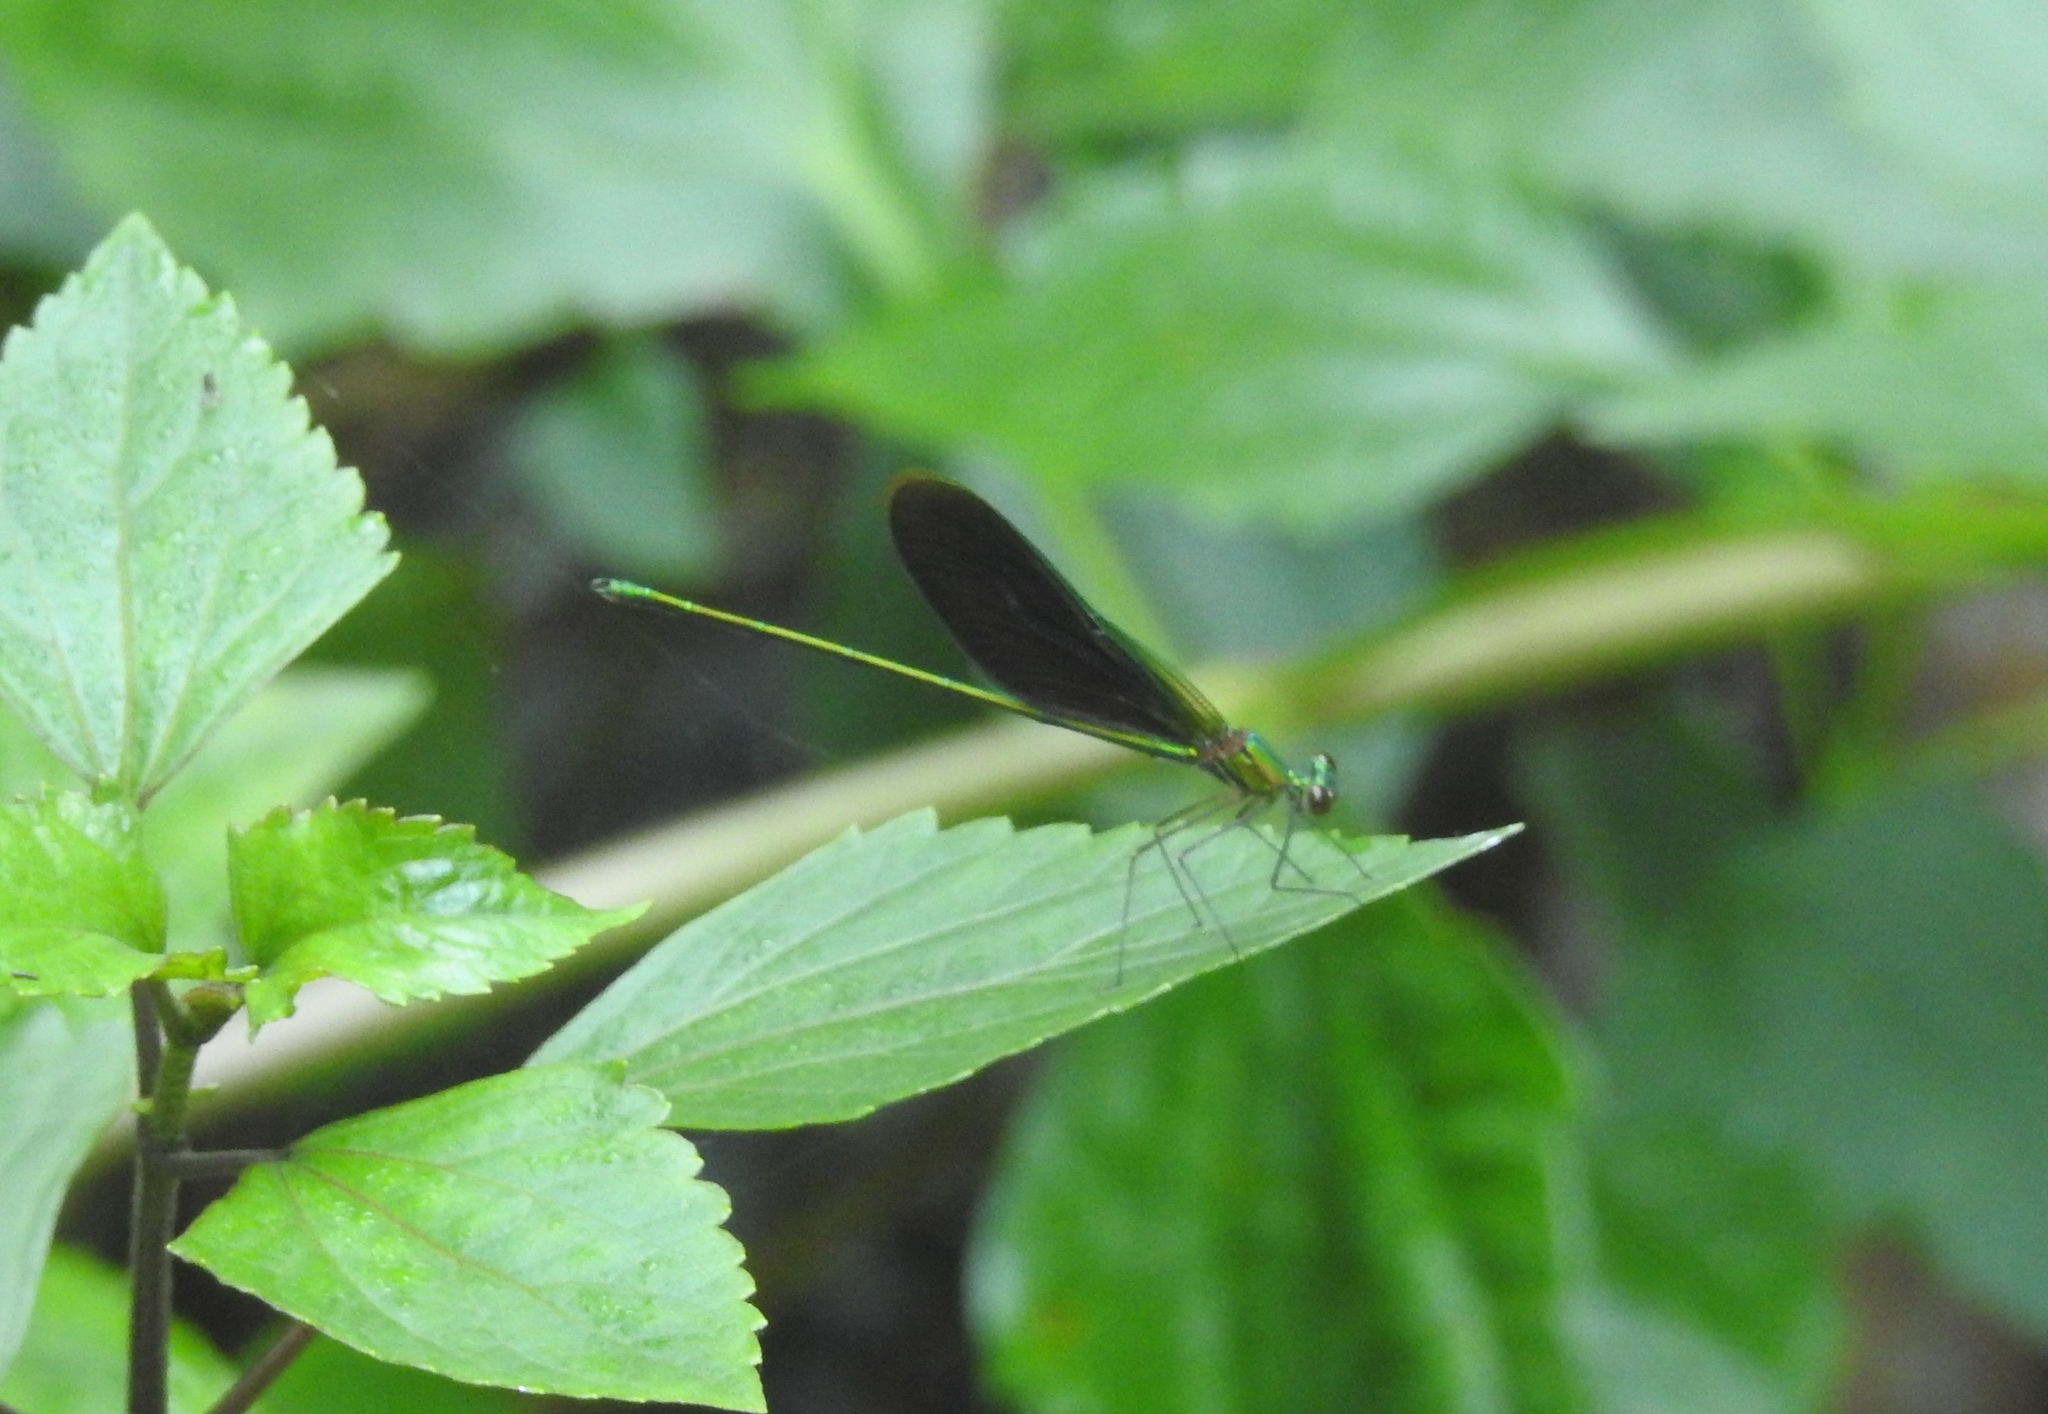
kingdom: Animalia
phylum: Arthropoda
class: Insecta
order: Odonata
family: Calopterygidae
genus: Neurobasis
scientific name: Neurobasis chinensis
